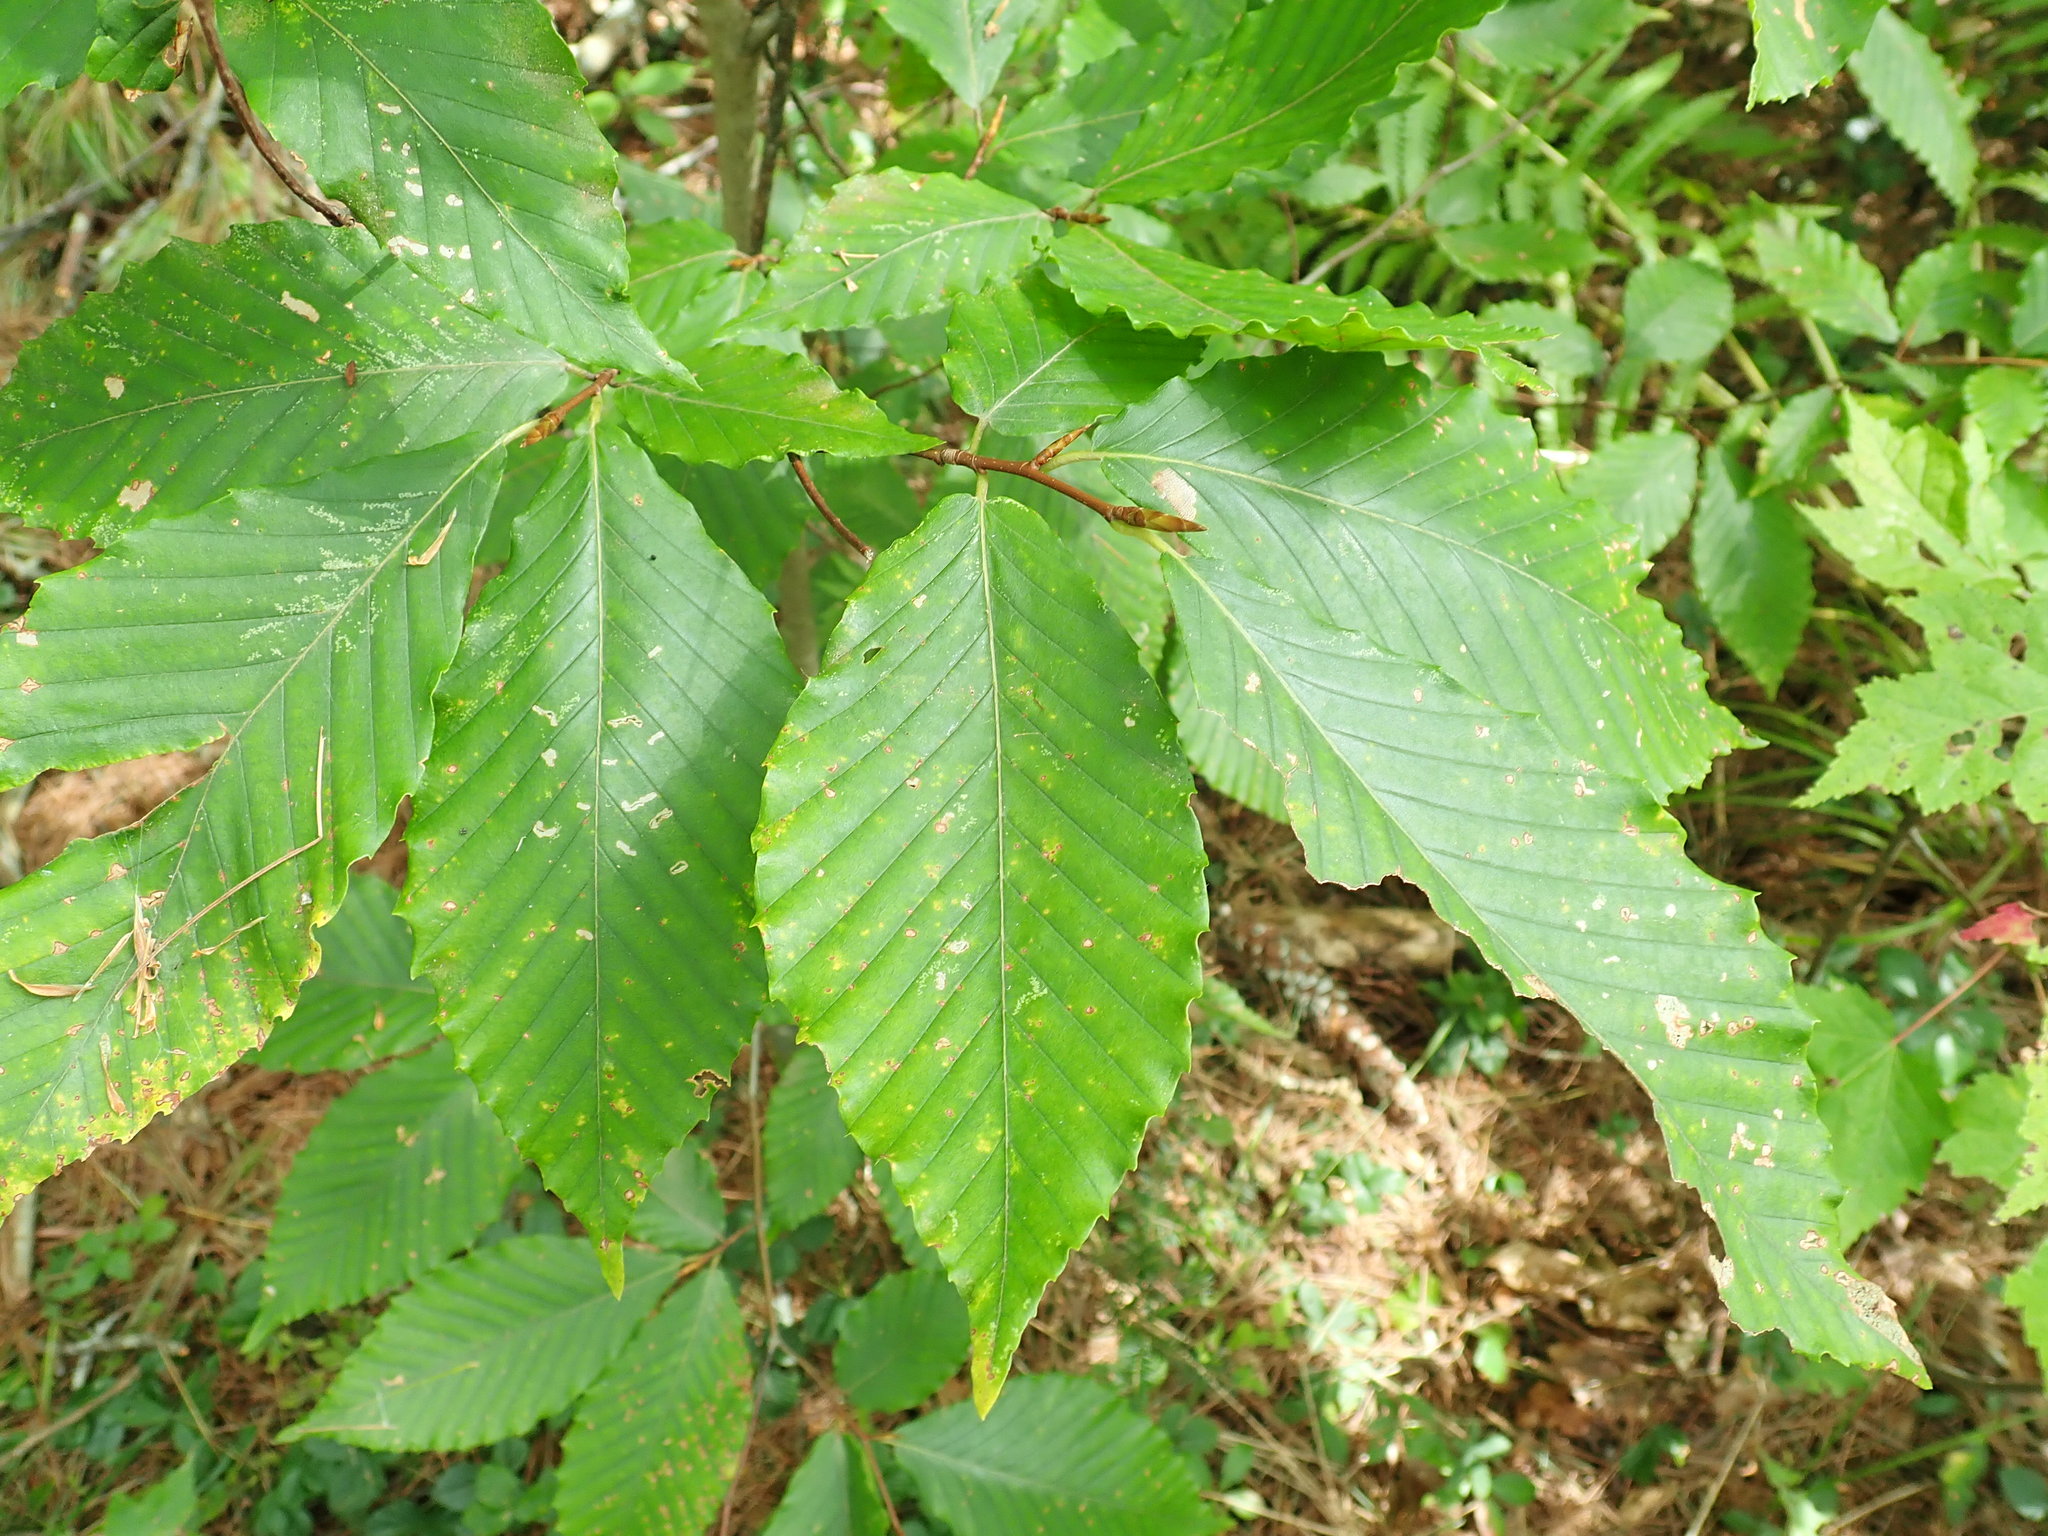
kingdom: Plantae
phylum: Tracheophyta
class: Magnoliopsida
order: Fagales
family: Fagaceae
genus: Fagus
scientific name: Fagus grandifolia
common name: American beech
